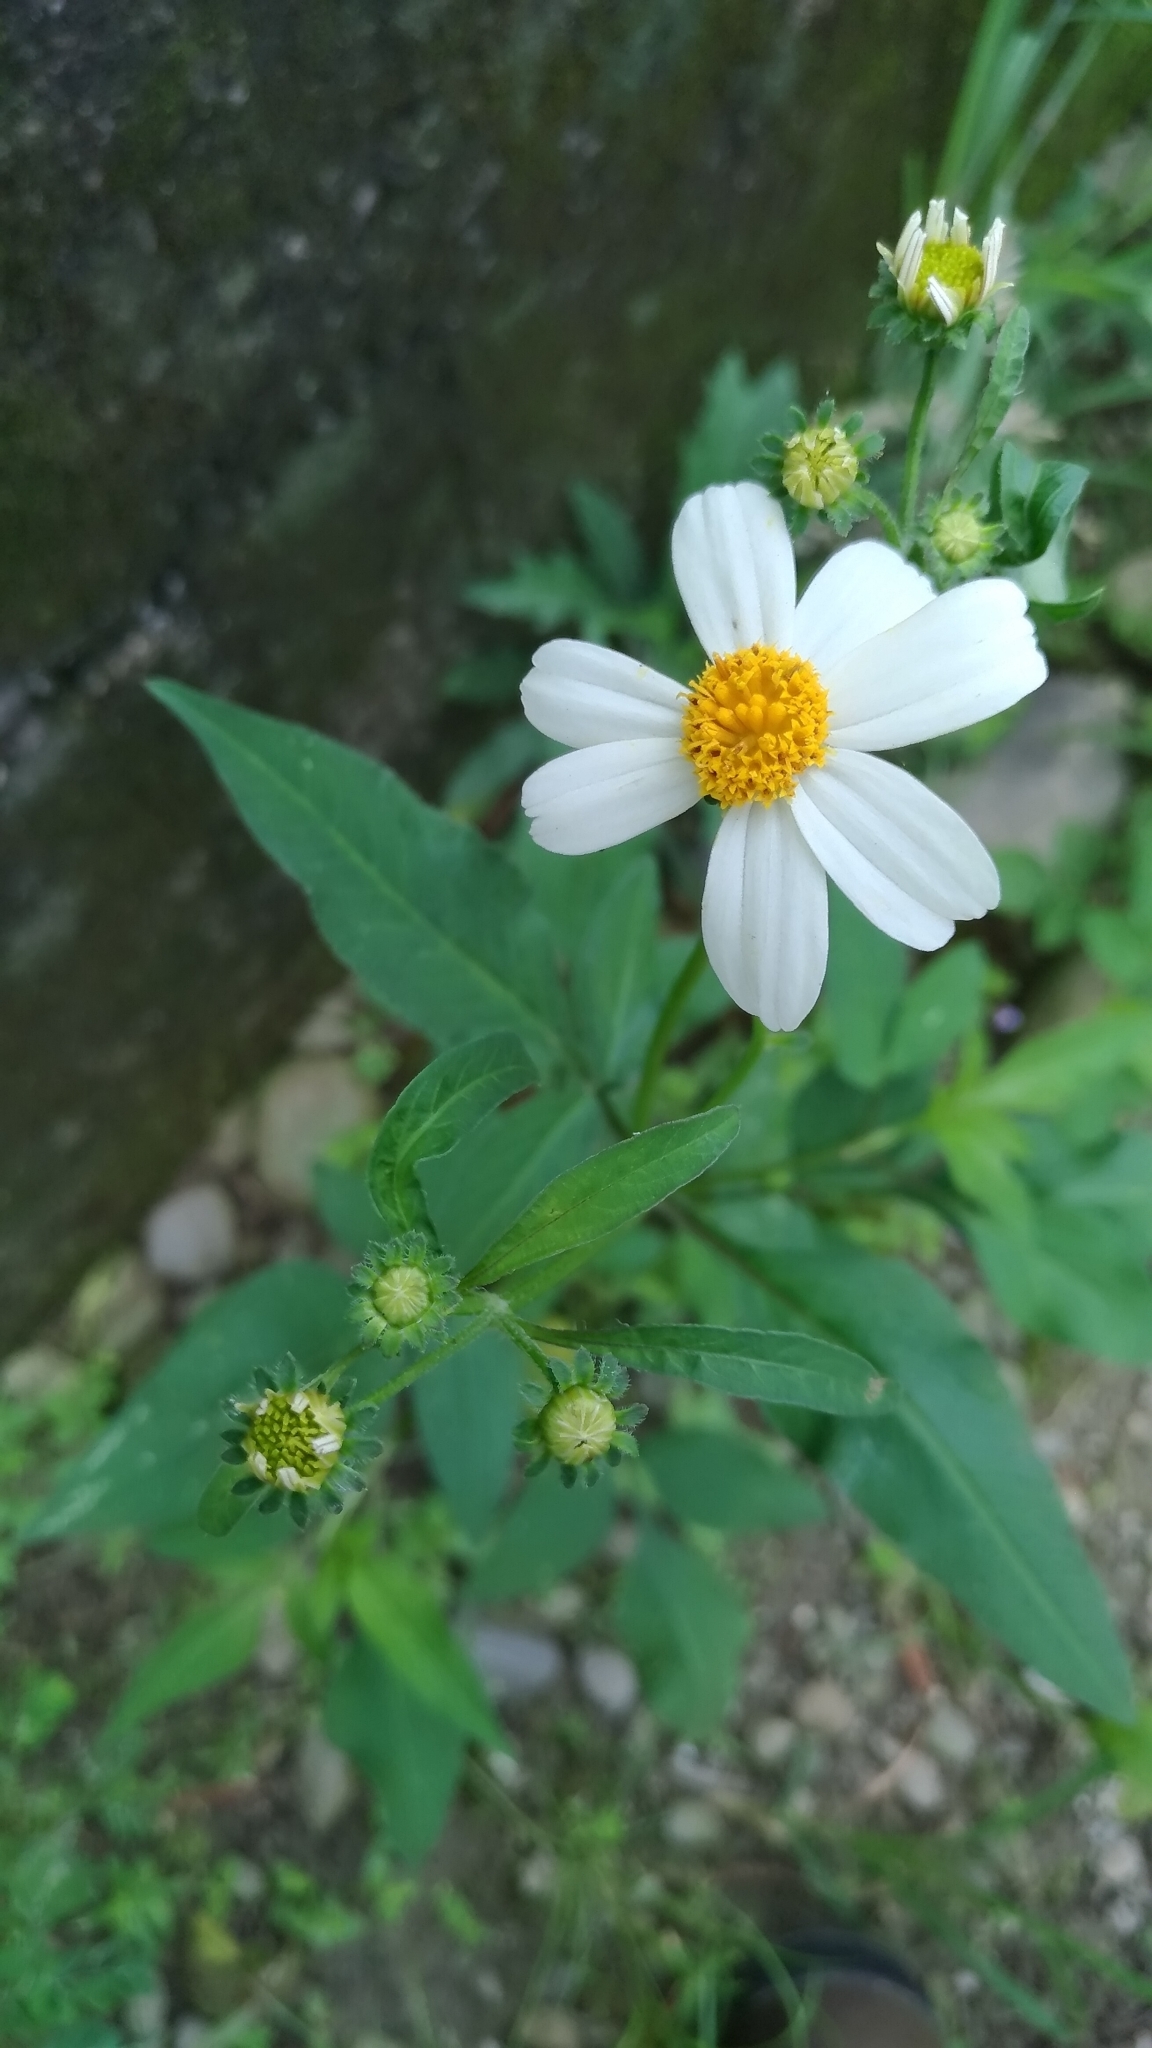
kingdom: Plantae
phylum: Tracheophyta
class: Magnoliopsida
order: Asterales
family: Asteraceae
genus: Bidens
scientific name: Bidens alba
